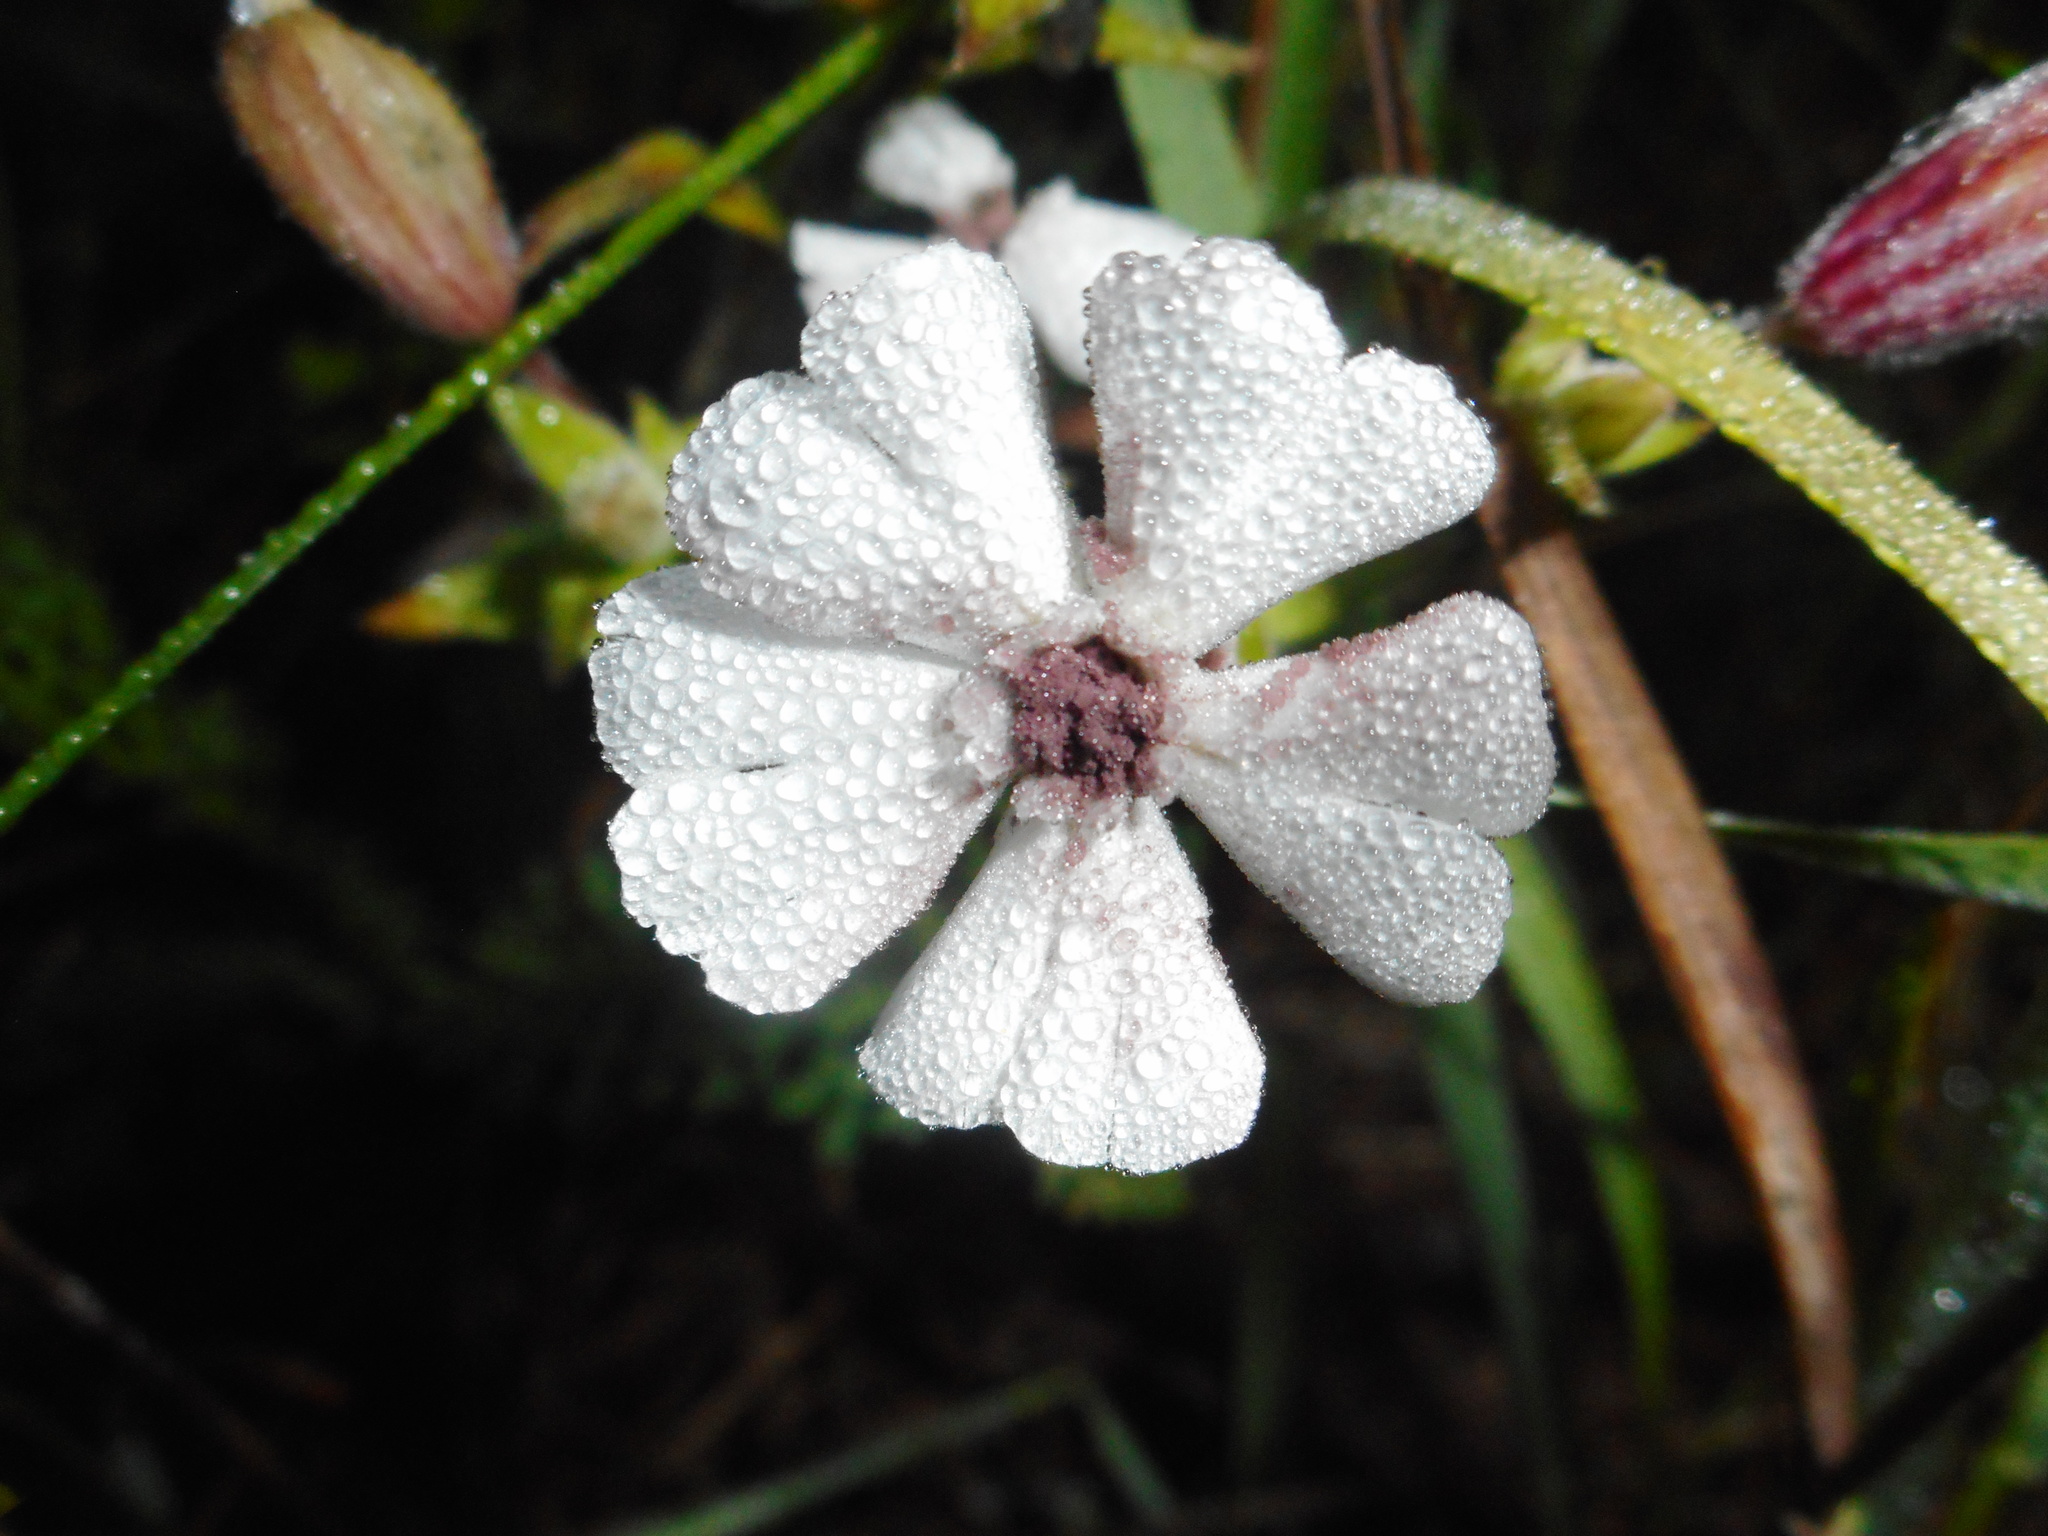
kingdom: Fungi
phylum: Basidiomycota
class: Microbotryomycetes
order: Microbotryales
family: Microbotryaceae
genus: Microbotryum
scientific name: Microbotryum lychnidis-dioicae
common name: Campion anther smut
